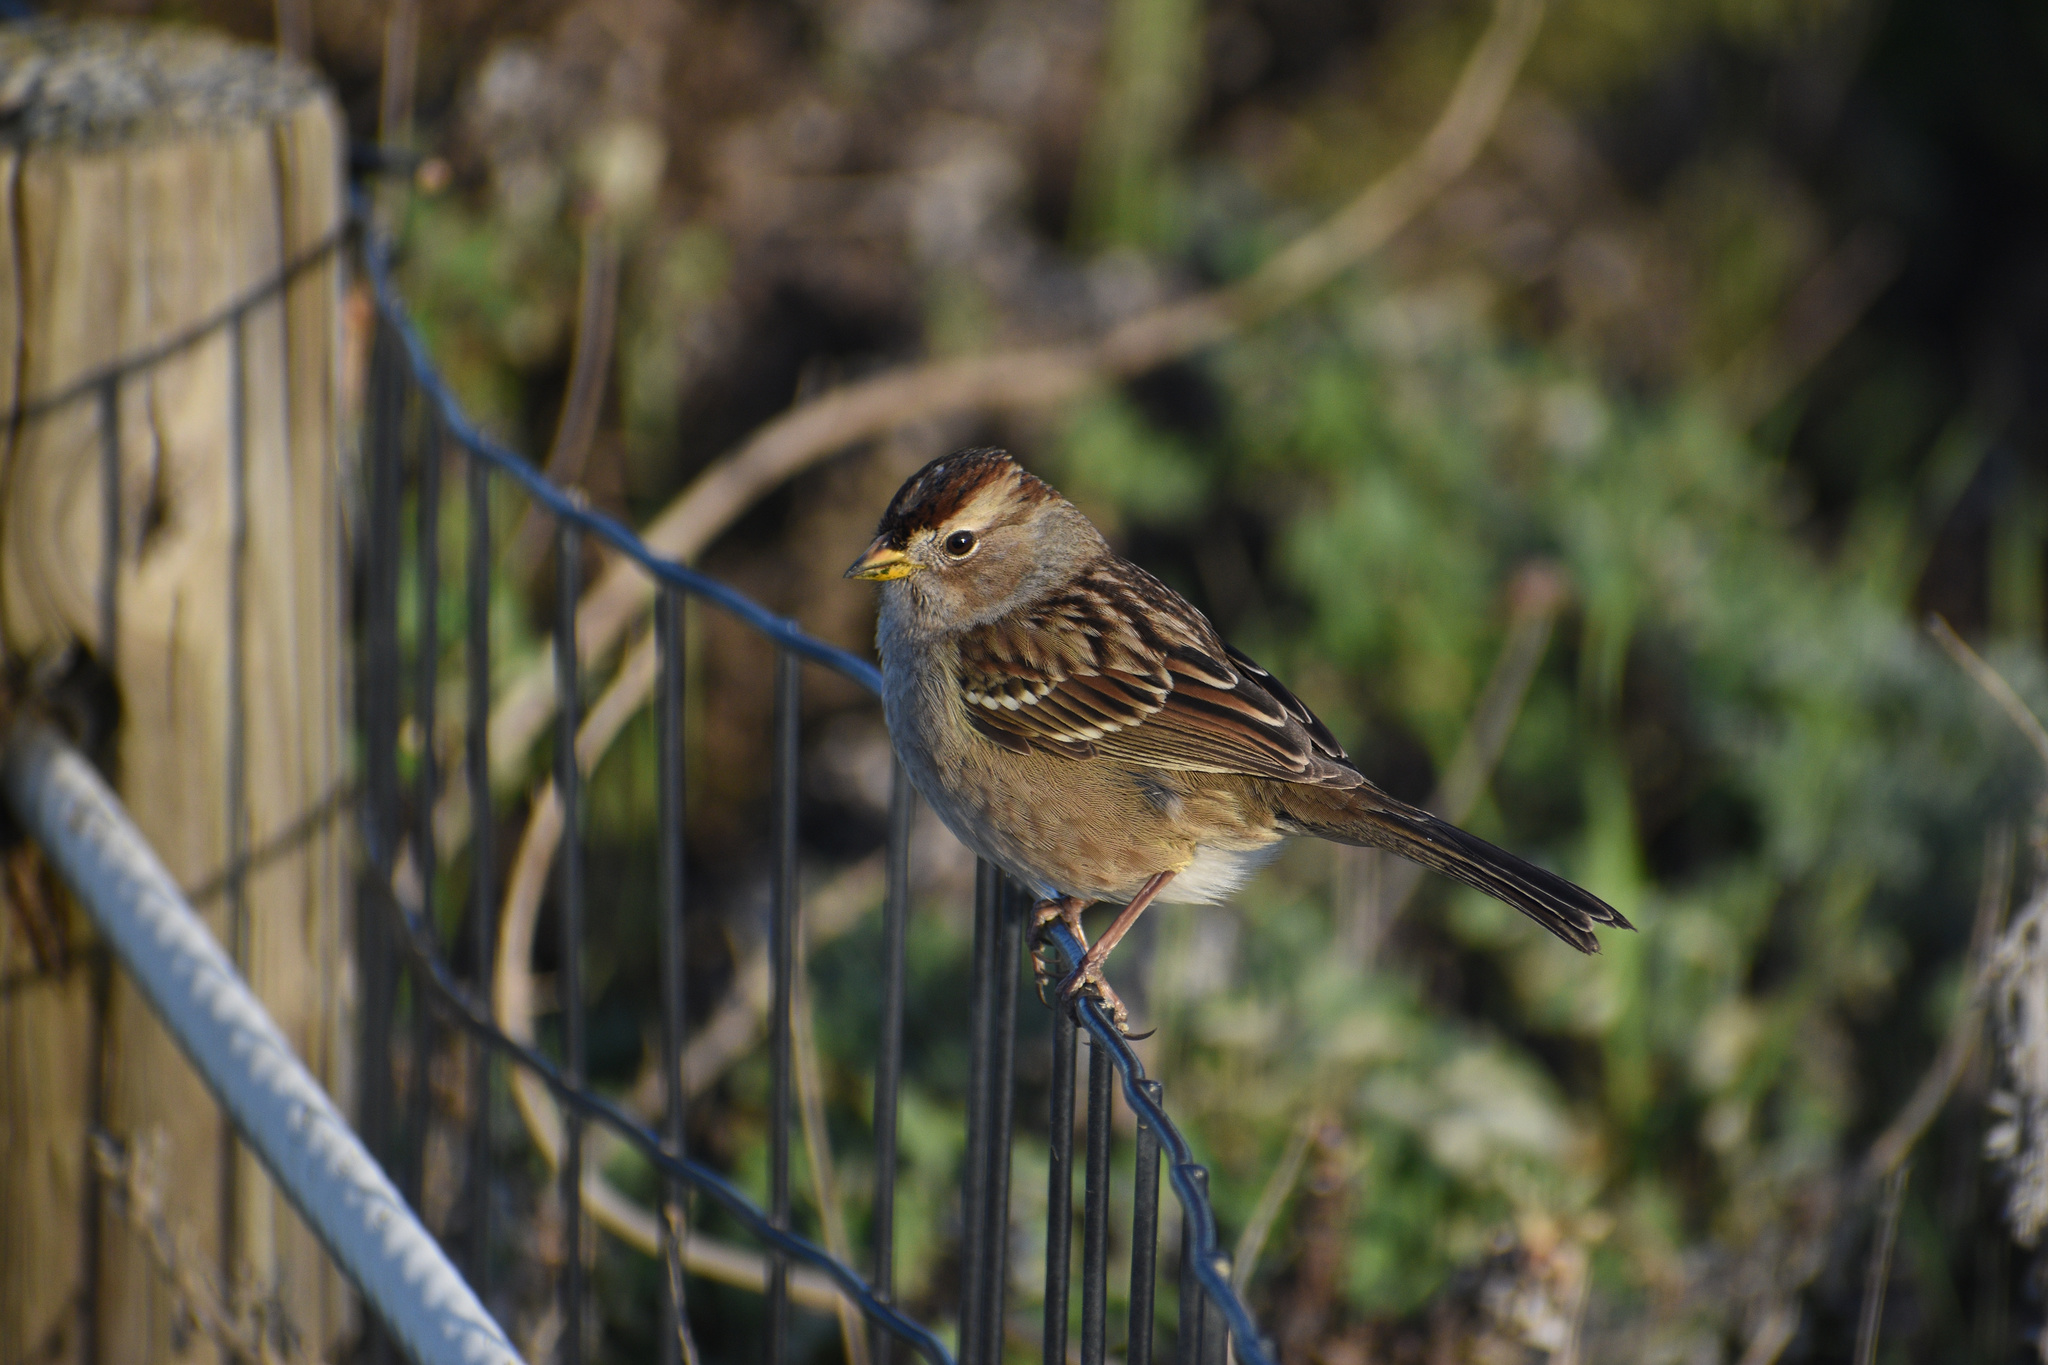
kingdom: Animalia
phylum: Chordata
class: Aves
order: Passeriformes
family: Passerellidae
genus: Zonotrichia
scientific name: Zonotrichia leucophrys
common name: White-crowned sparrow
